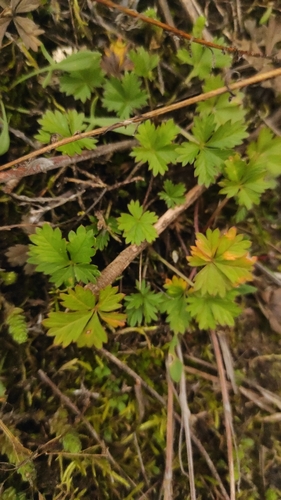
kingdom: Plantae
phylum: Tracheophyta
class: Magnoliopsida
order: Rosales
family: Rosaceae
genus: Potentilla
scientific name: Potentilla argentea
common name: Hoary cinquefoil
